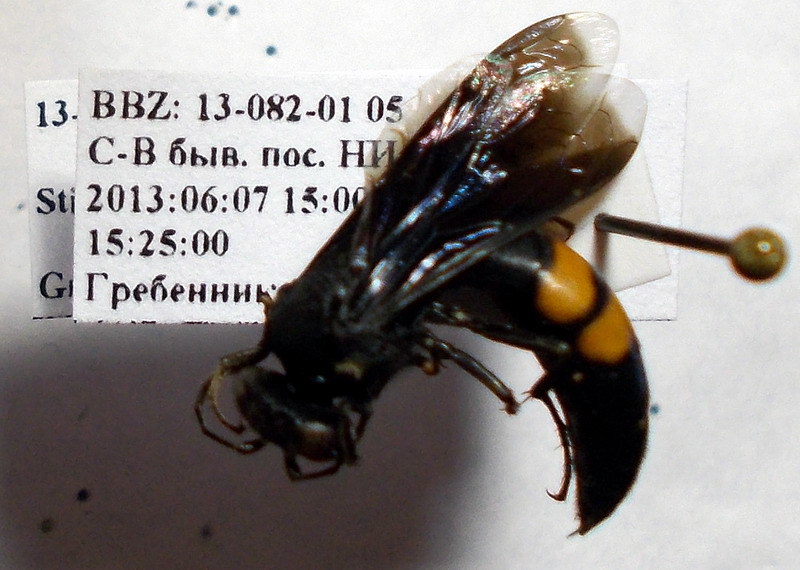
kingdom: Animalia
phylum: Arthropoda
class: Insecta
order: Hymenoptera
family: Crabronidae
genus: Stizoides
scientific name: Stizoides tridentatus
